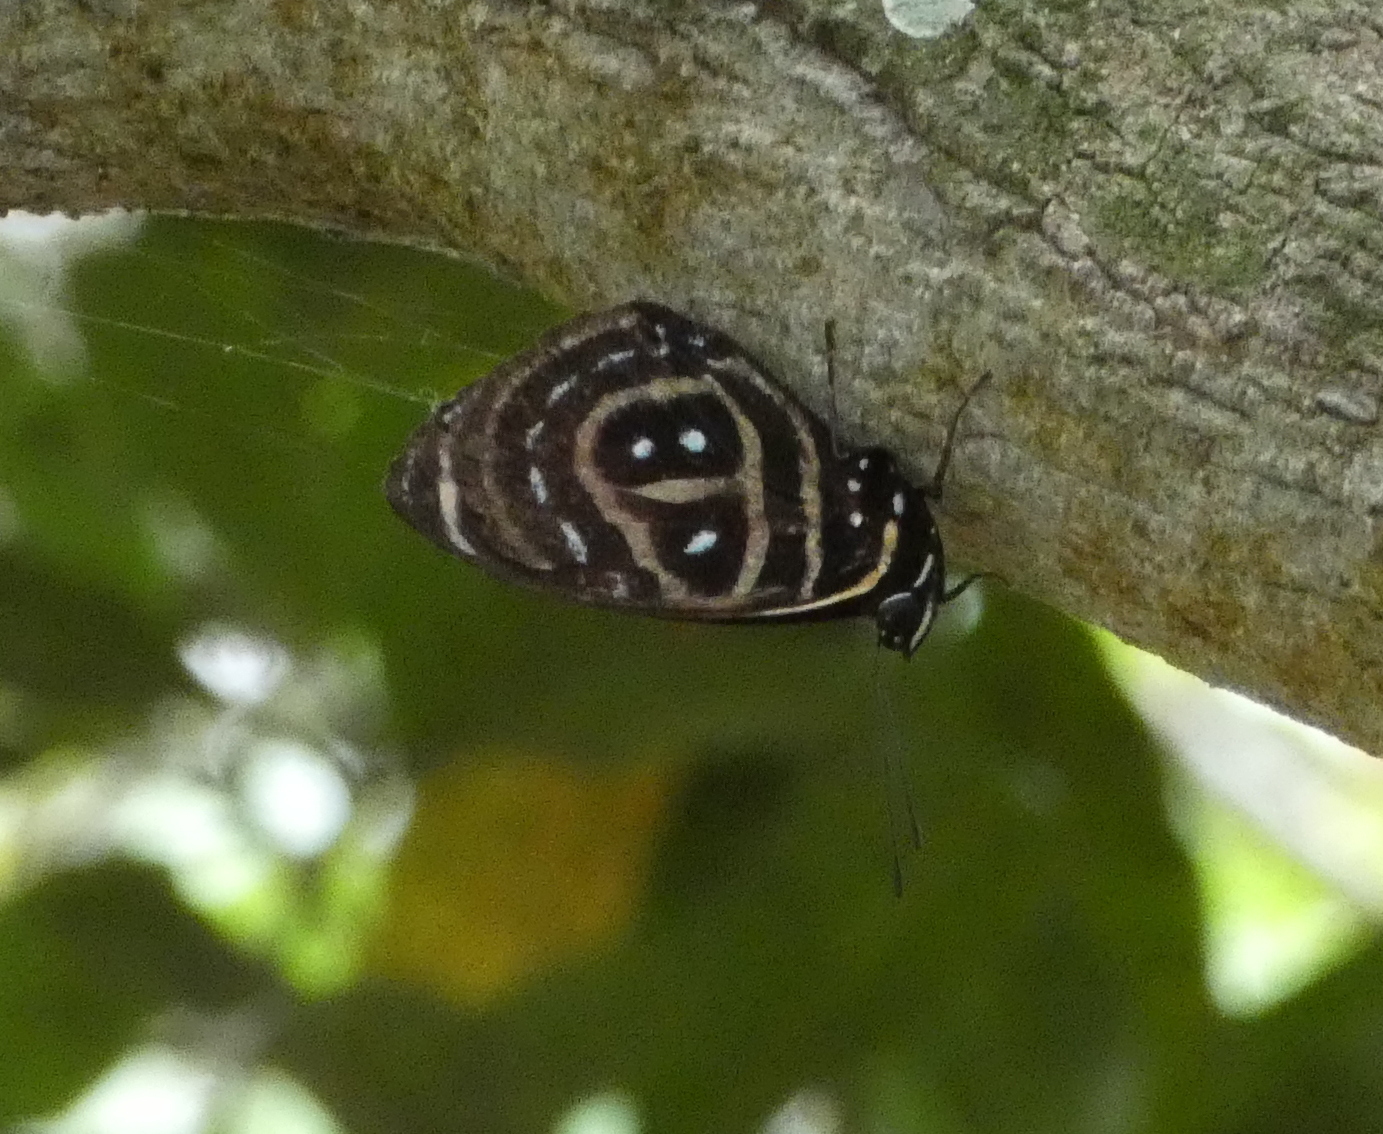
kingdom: Animalia
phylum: Arthropoda
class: Insecta
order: Lepidoptera
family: Nymphalidae
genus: Catagramma
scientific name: Catagramma astarte
